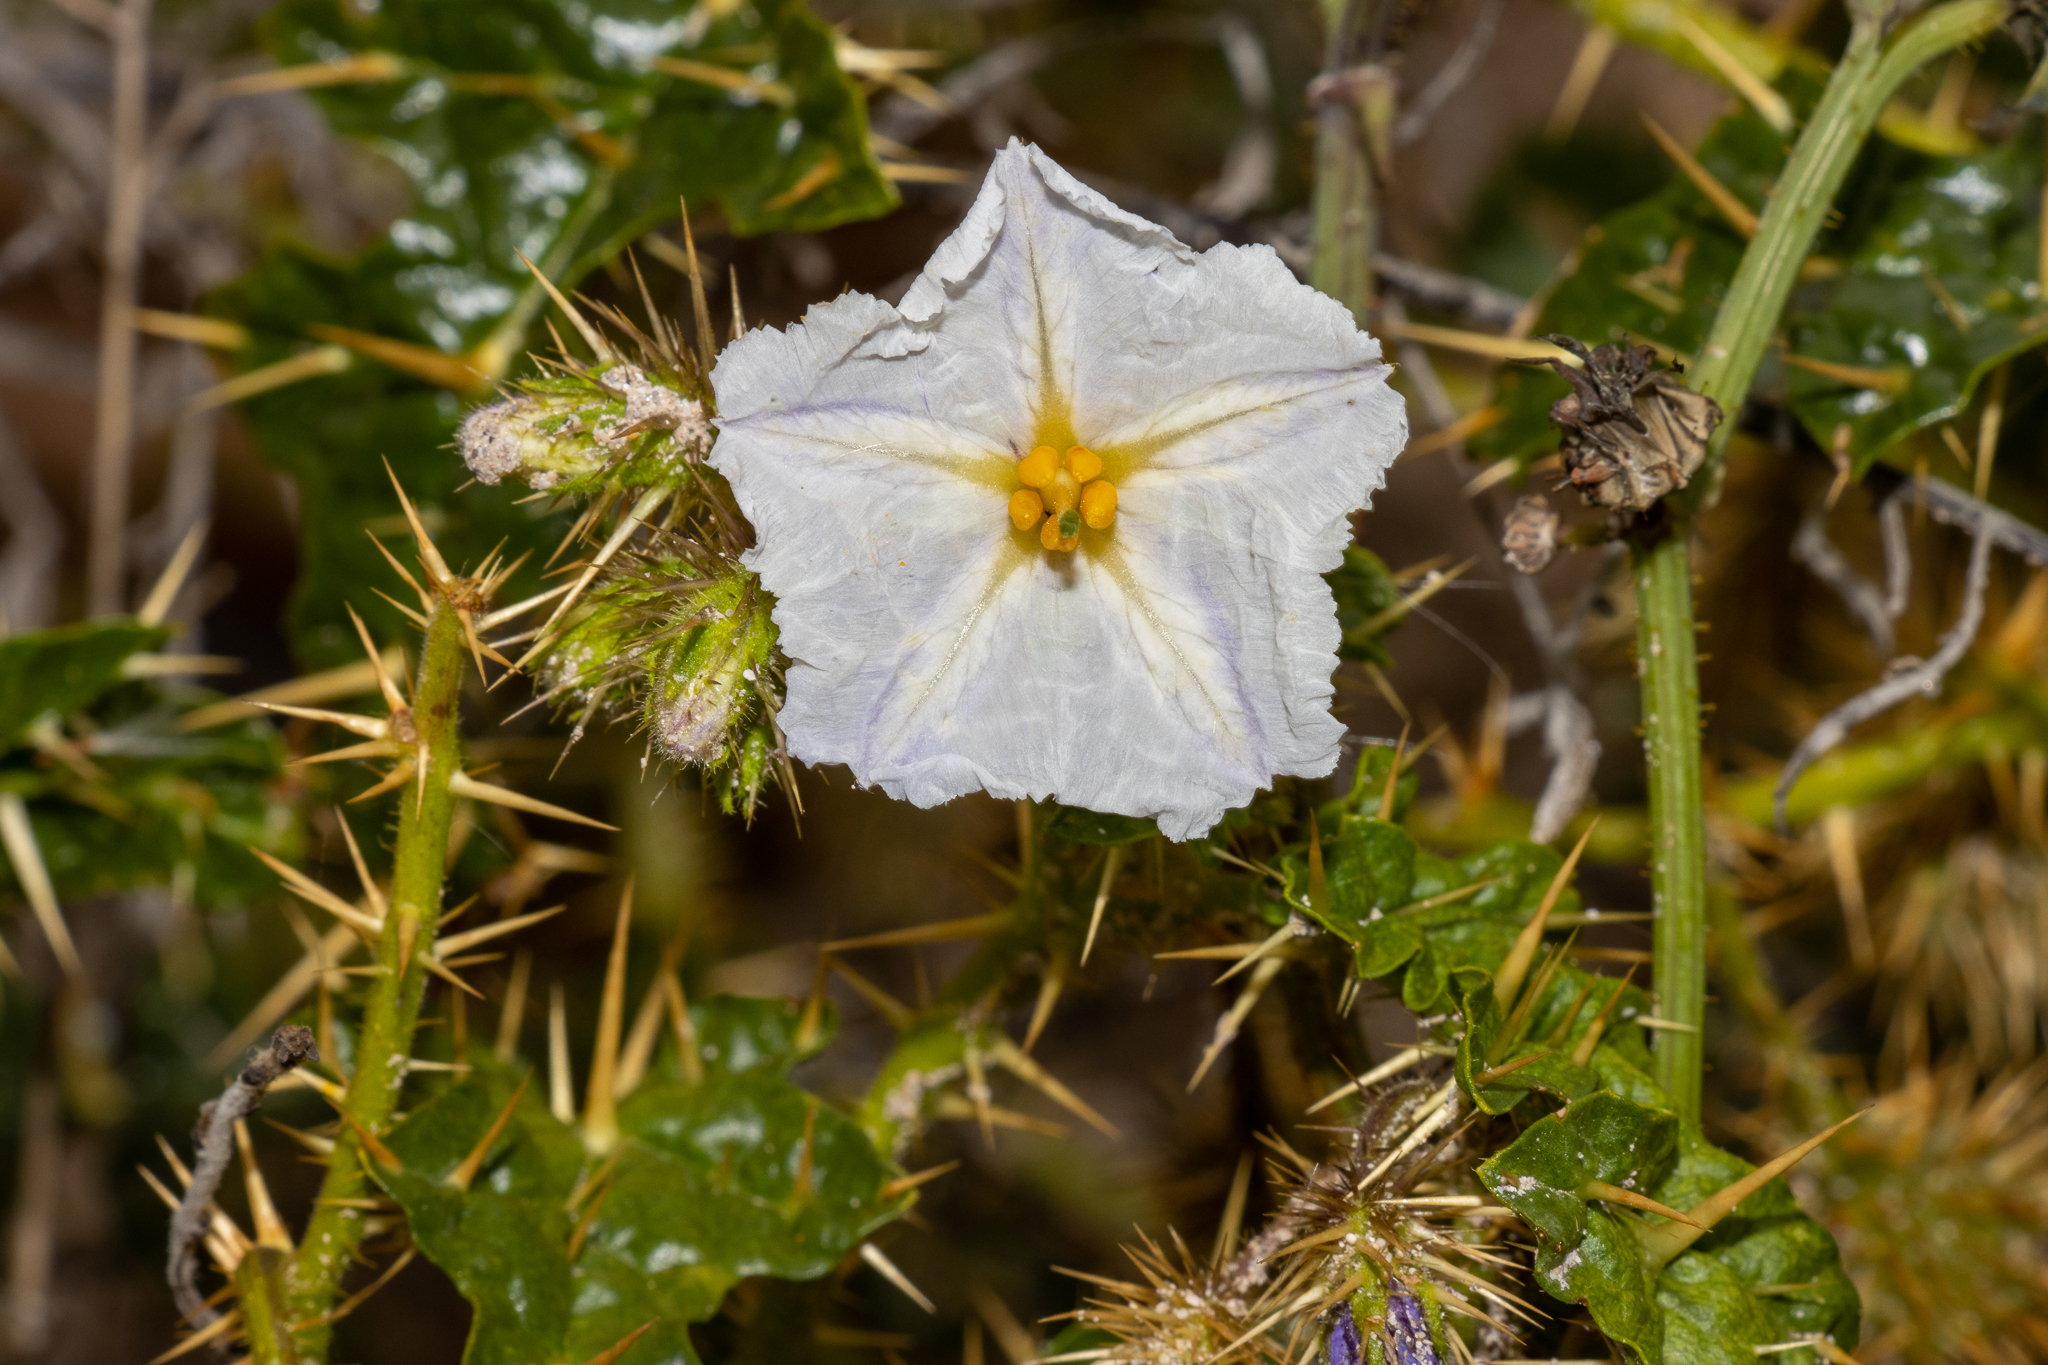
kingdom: Plantae
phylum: Tracheophyta
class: Magnoliopsida
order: Solanales
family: Solanaceae
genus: Solanum
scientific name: Solanum hystrix
